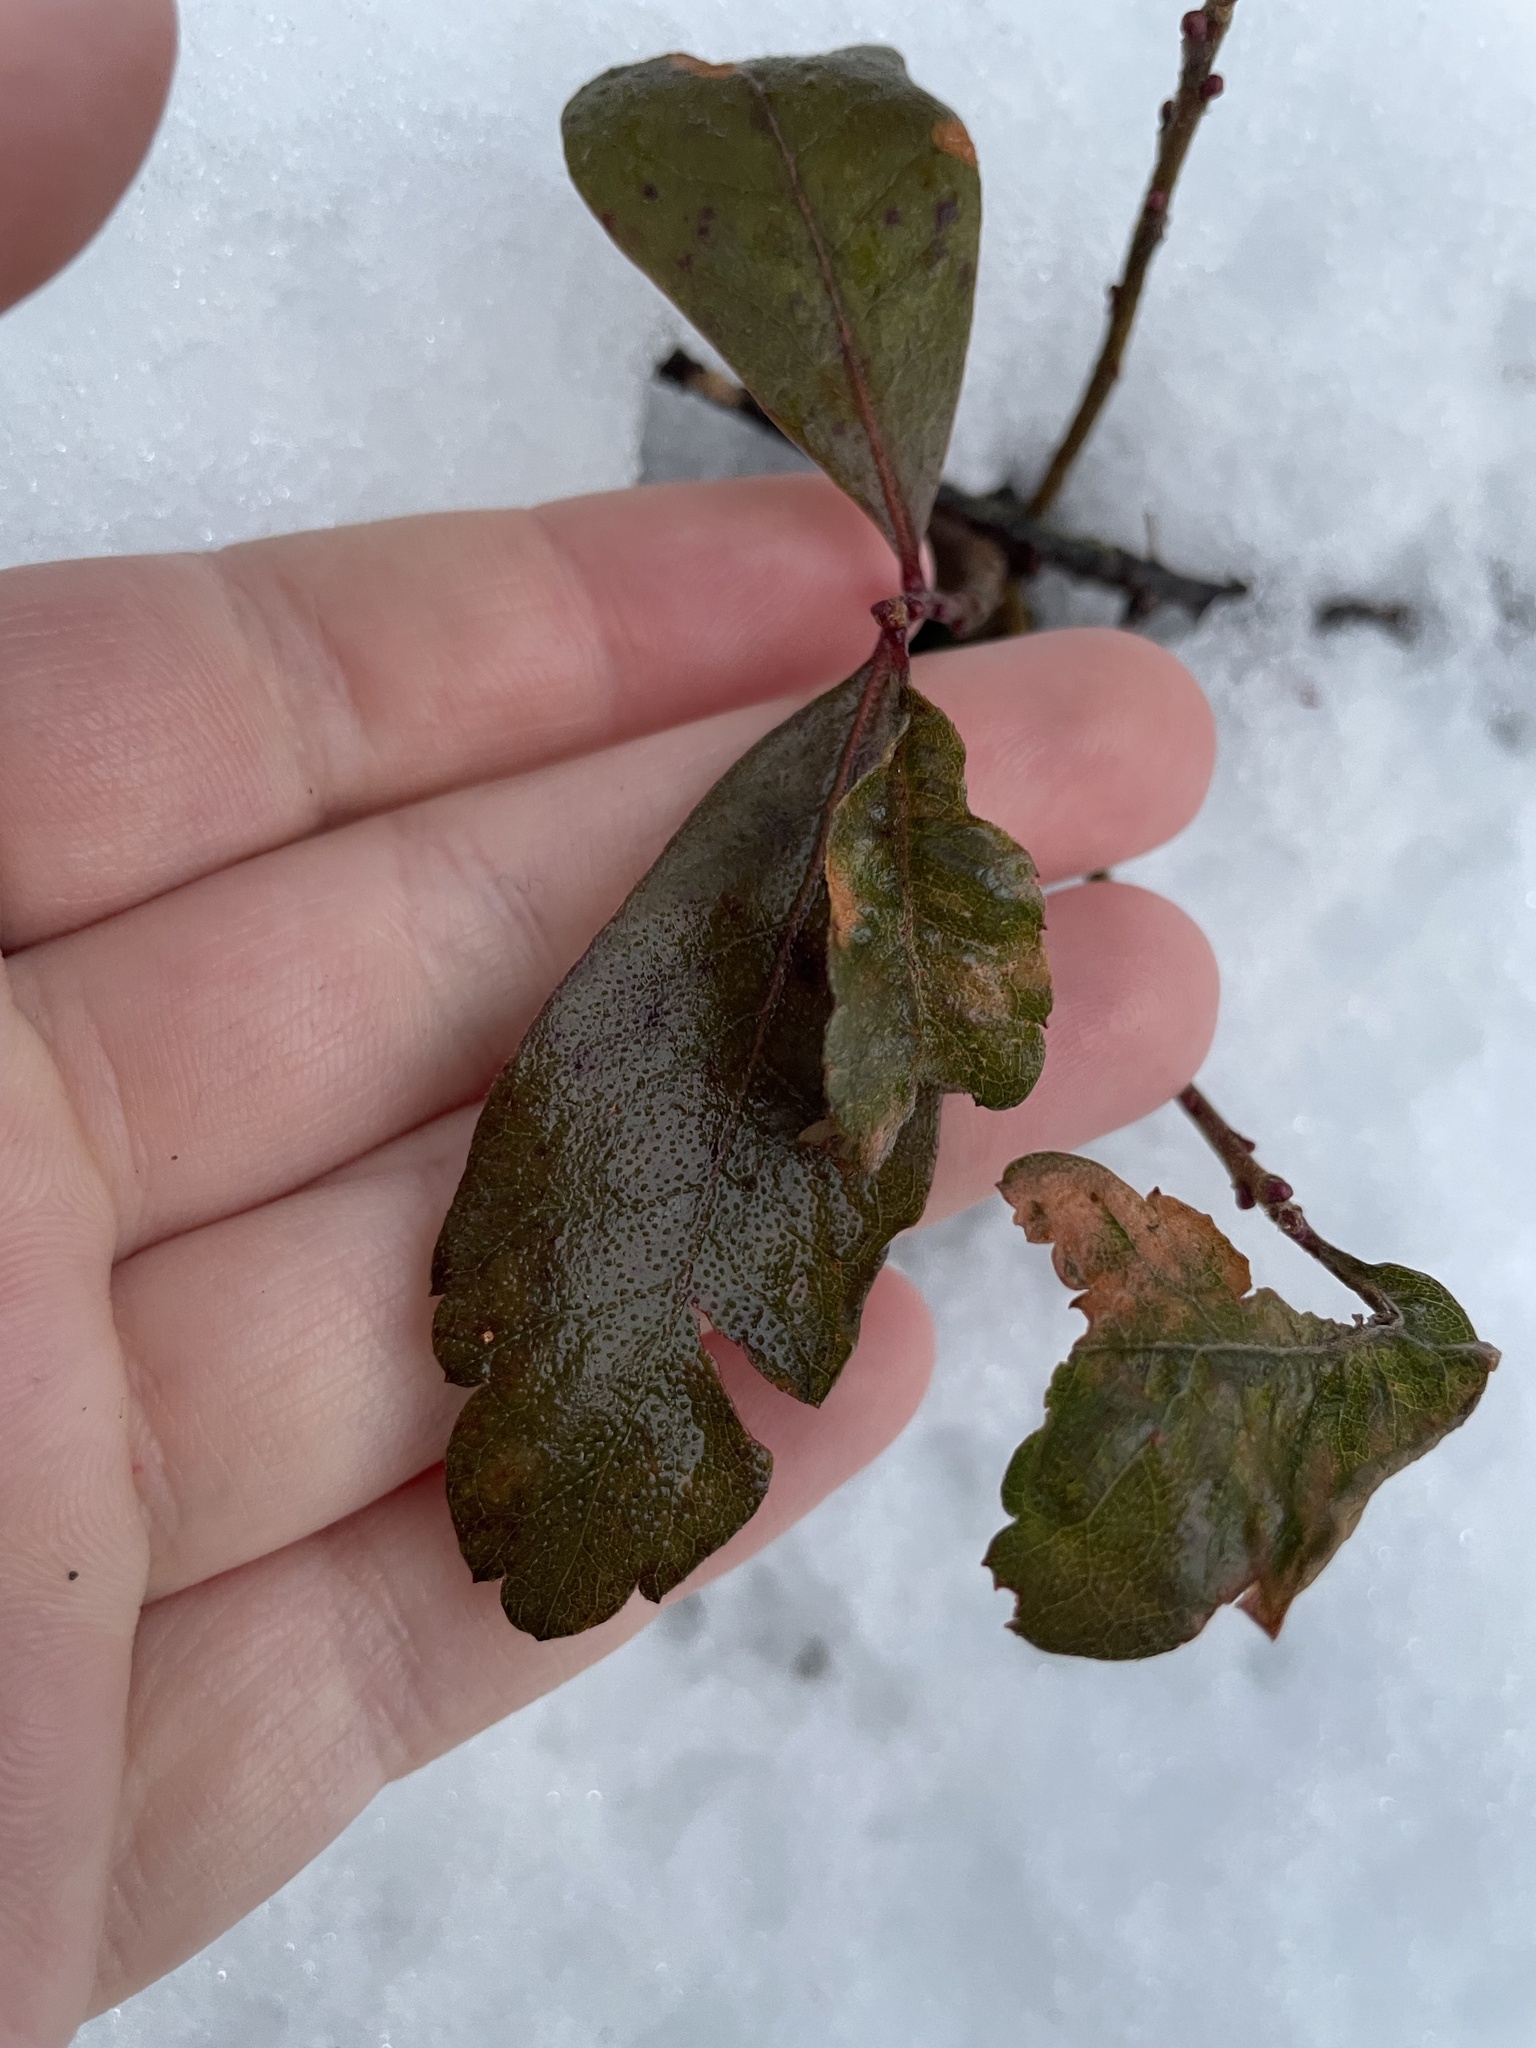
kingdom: Plantae
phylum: Tracheophyta
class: Magnoliopsida
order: Fagales
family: Myricaceae
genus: Morella
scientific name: Morella pensylvanica
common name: Northern bayberry
